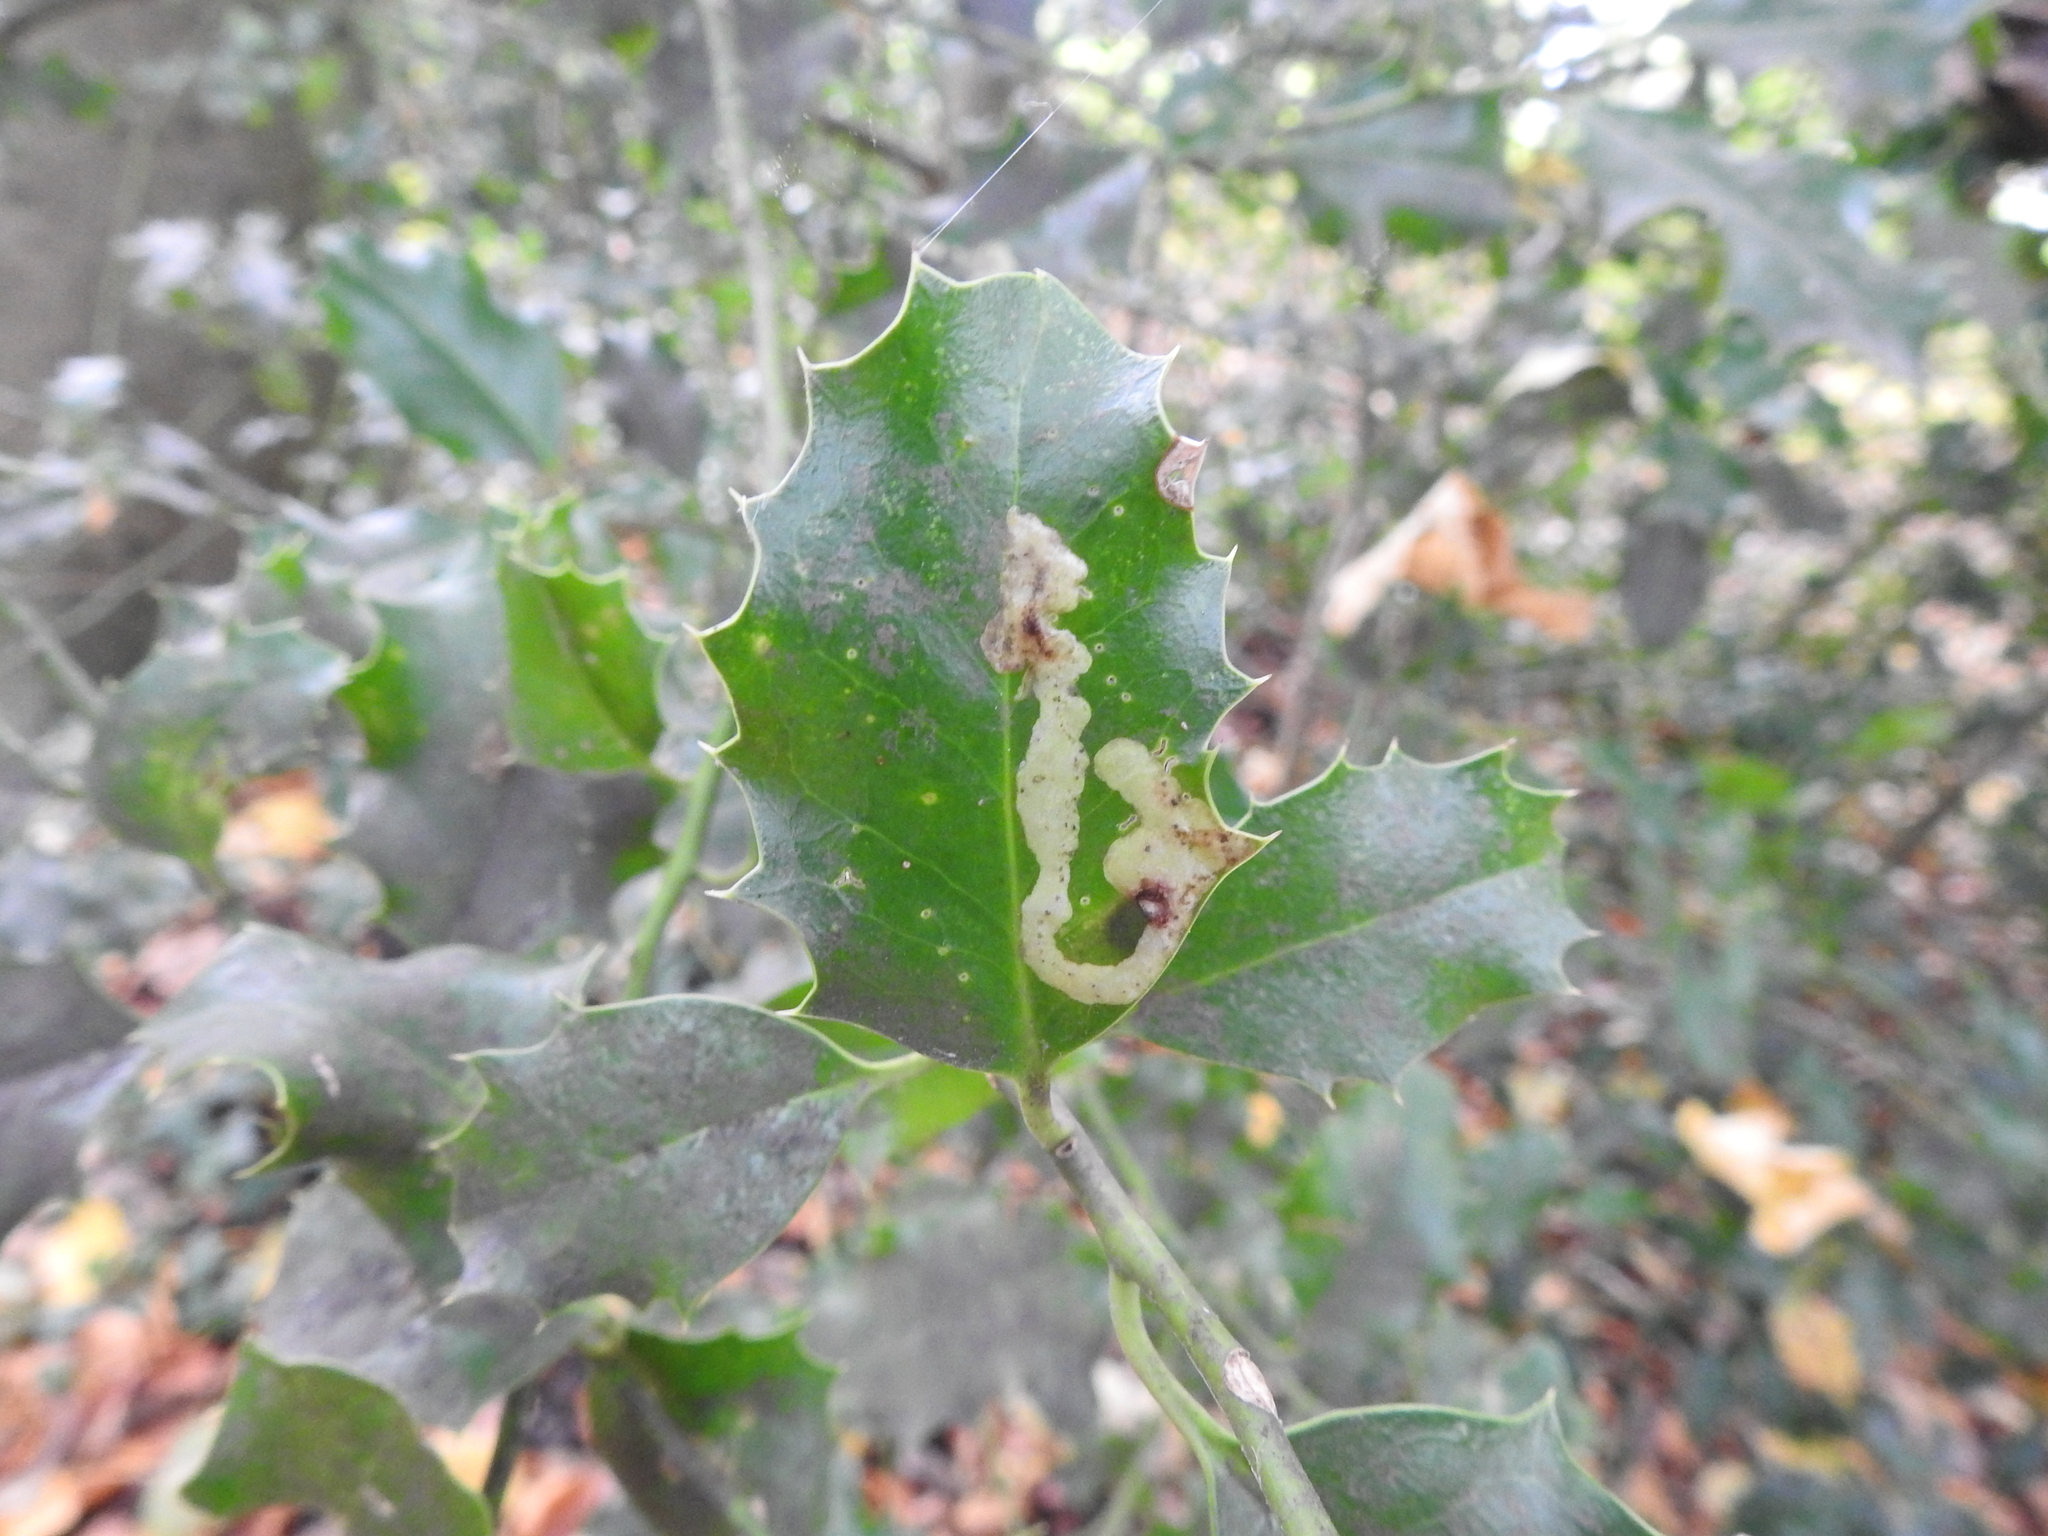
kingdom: Animalia
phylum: Arthropoda
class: Insecta
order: Diptera
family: Agromyzidae
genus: Phytomyza
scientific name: Phytomyza ilicis
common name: Holly leafminer
